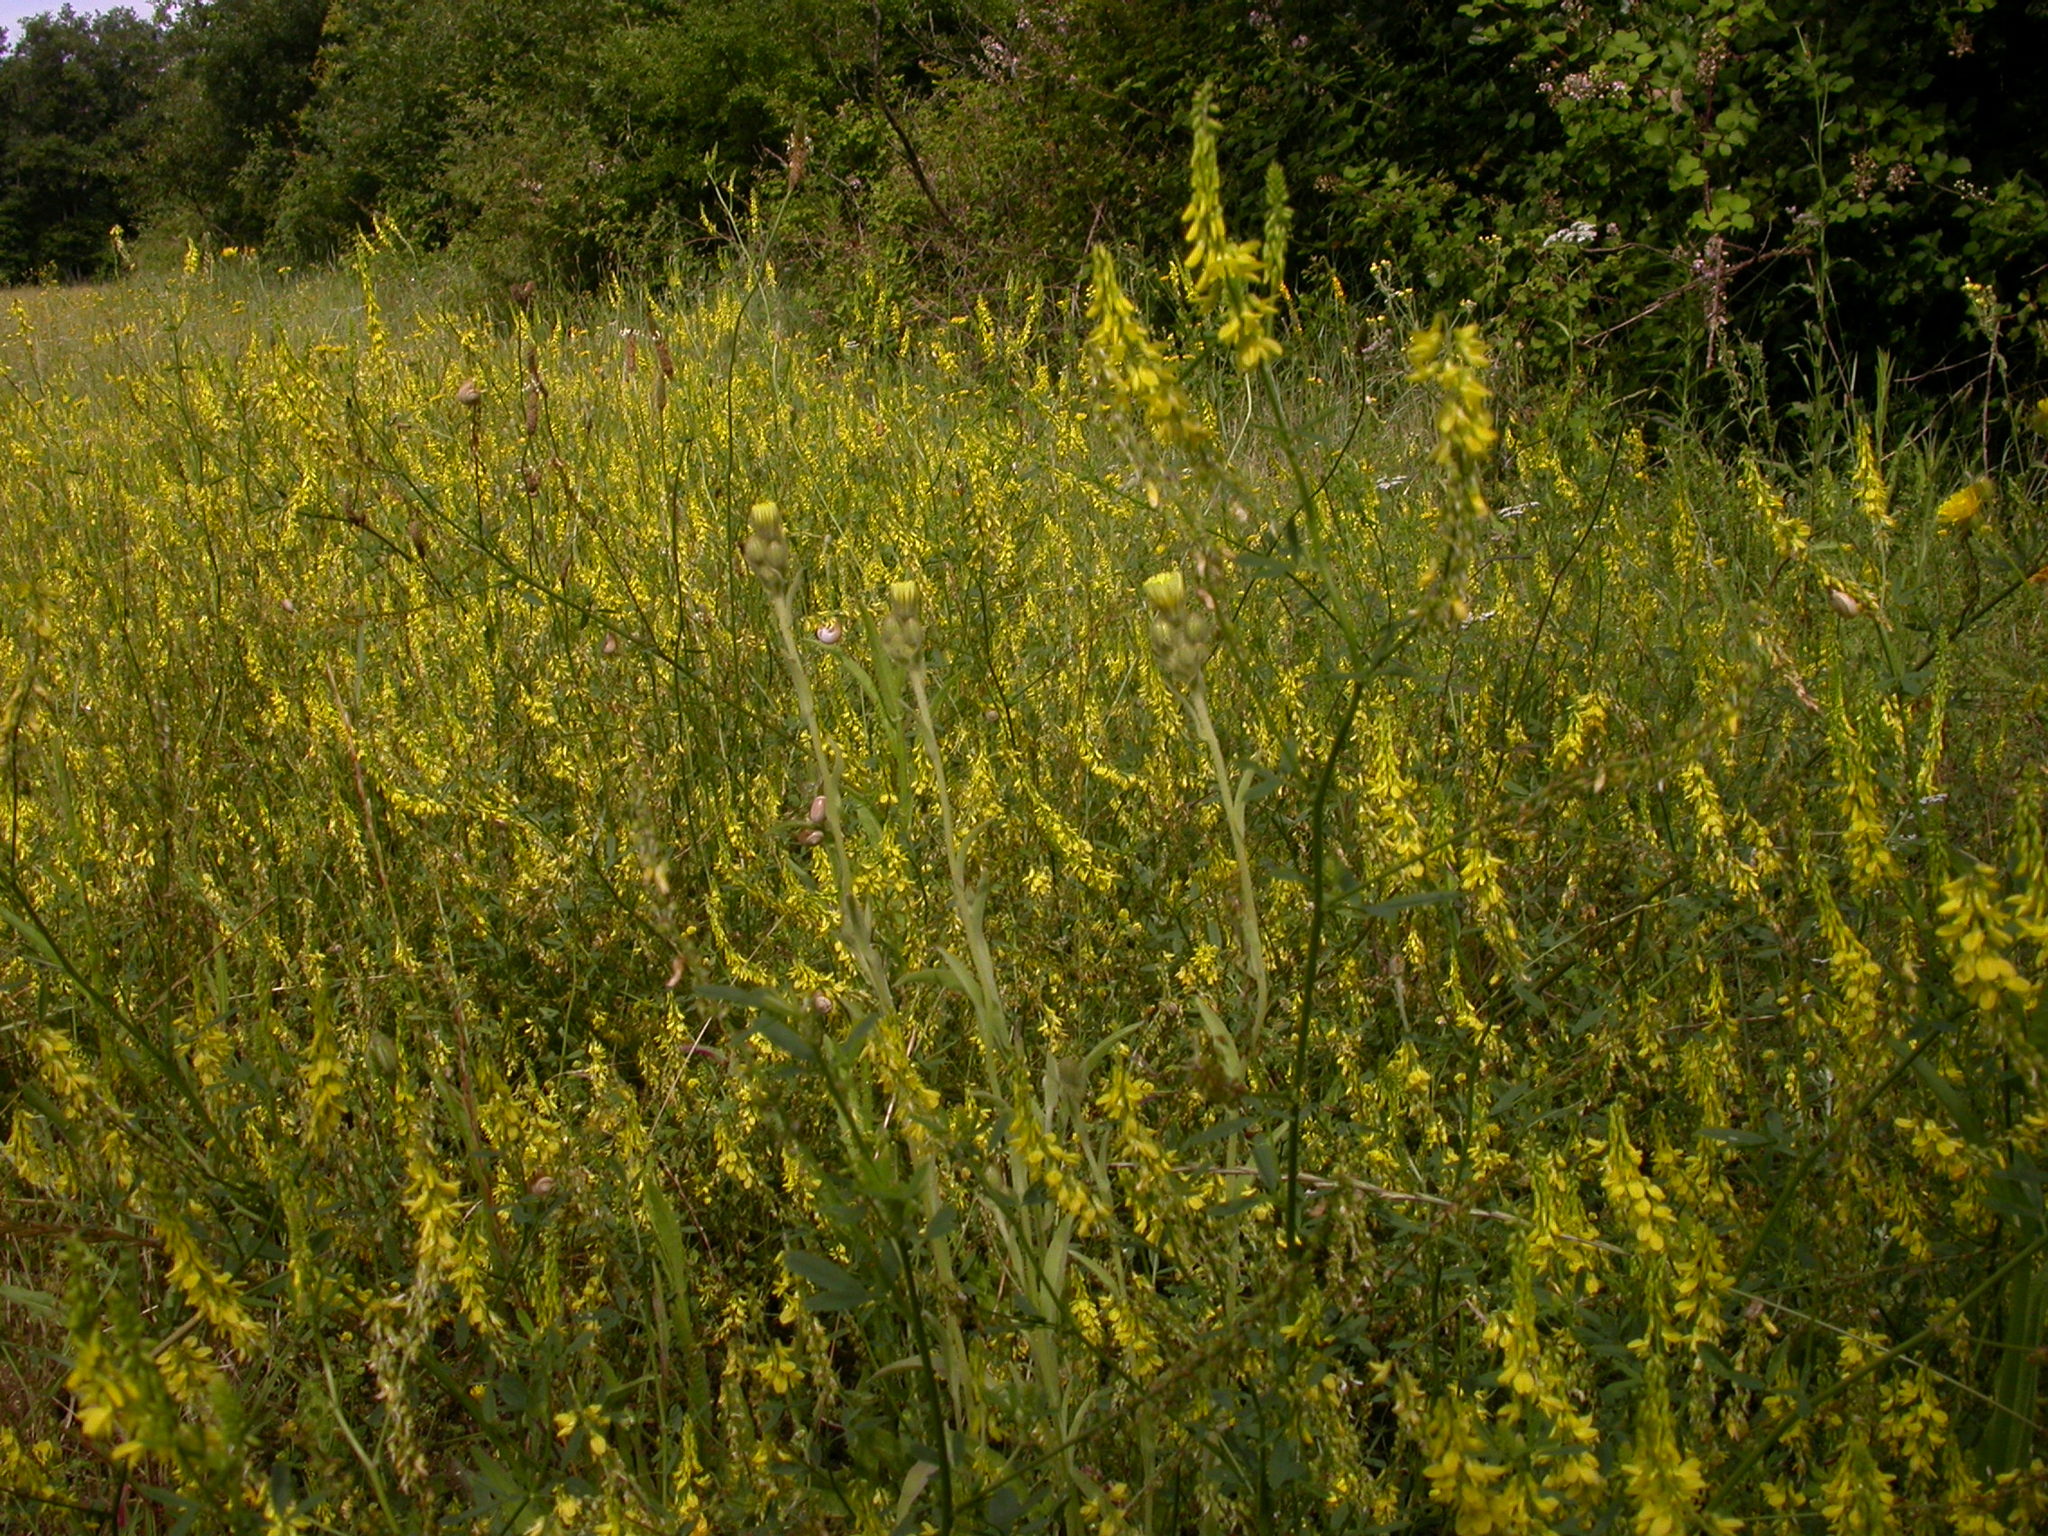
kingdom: Plantae
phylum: Tracheophyta
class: Magnoliopsida
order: Fabales
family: Fabaceae
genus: Melilotus
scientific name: Melilotus officinalis
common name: Sweetclover
